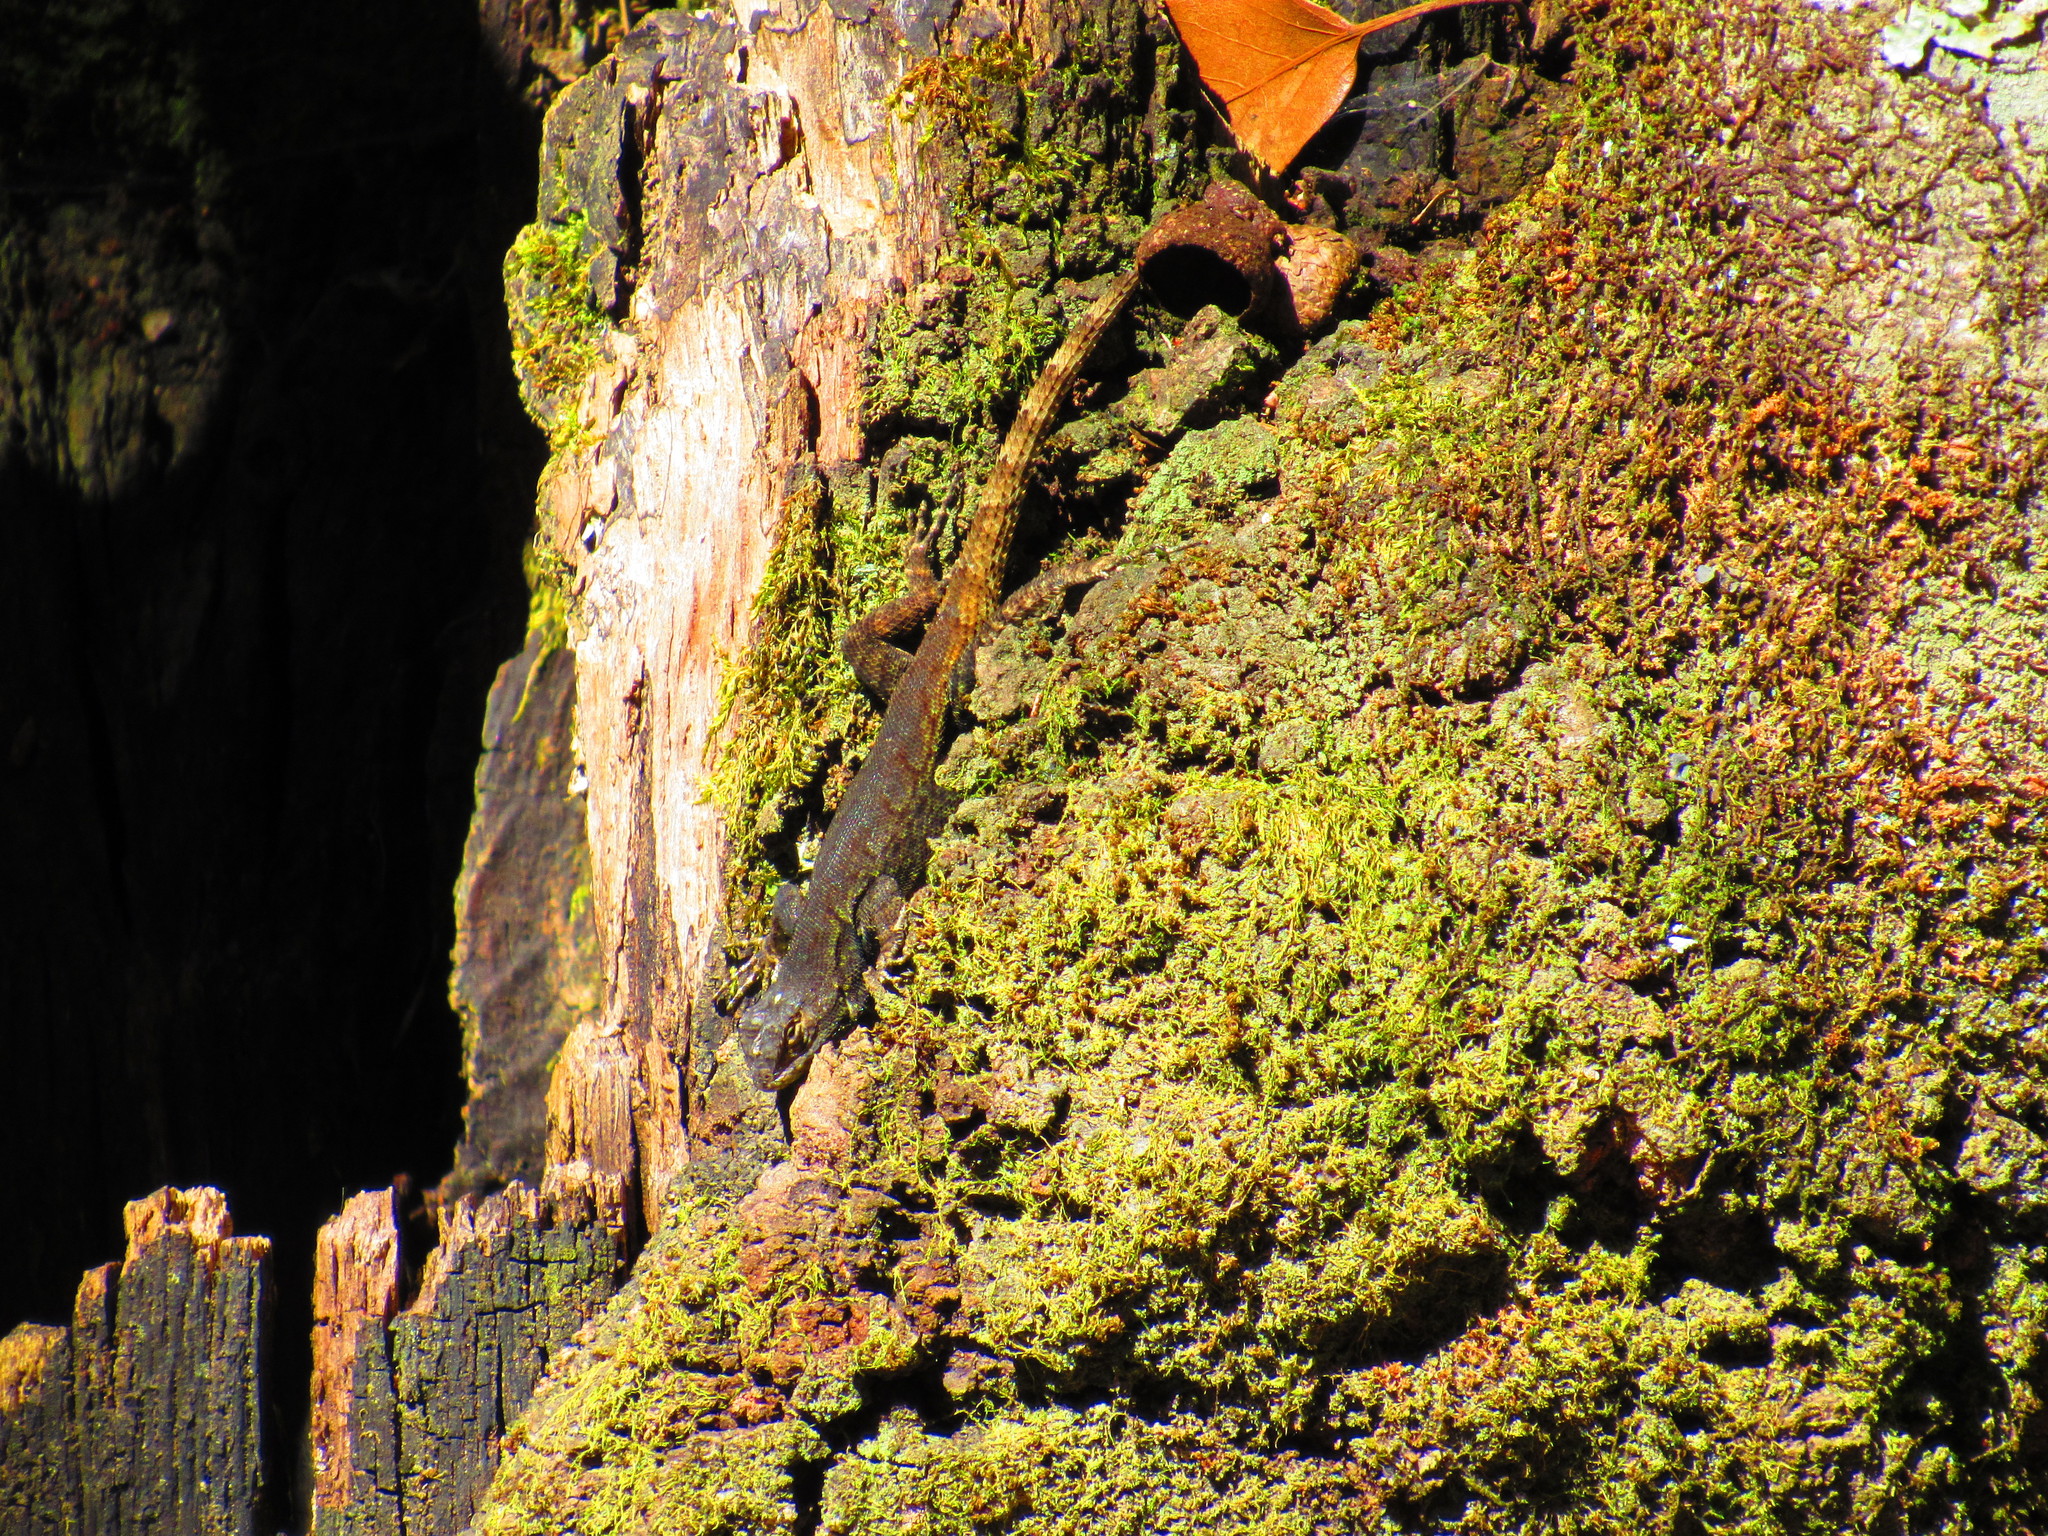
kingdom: Animalia
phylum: Chordata
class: Squamata
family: Phrynosomatidae
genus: Sceloporus
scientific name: Sceloporus grammicus
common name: Mesquite lizard
